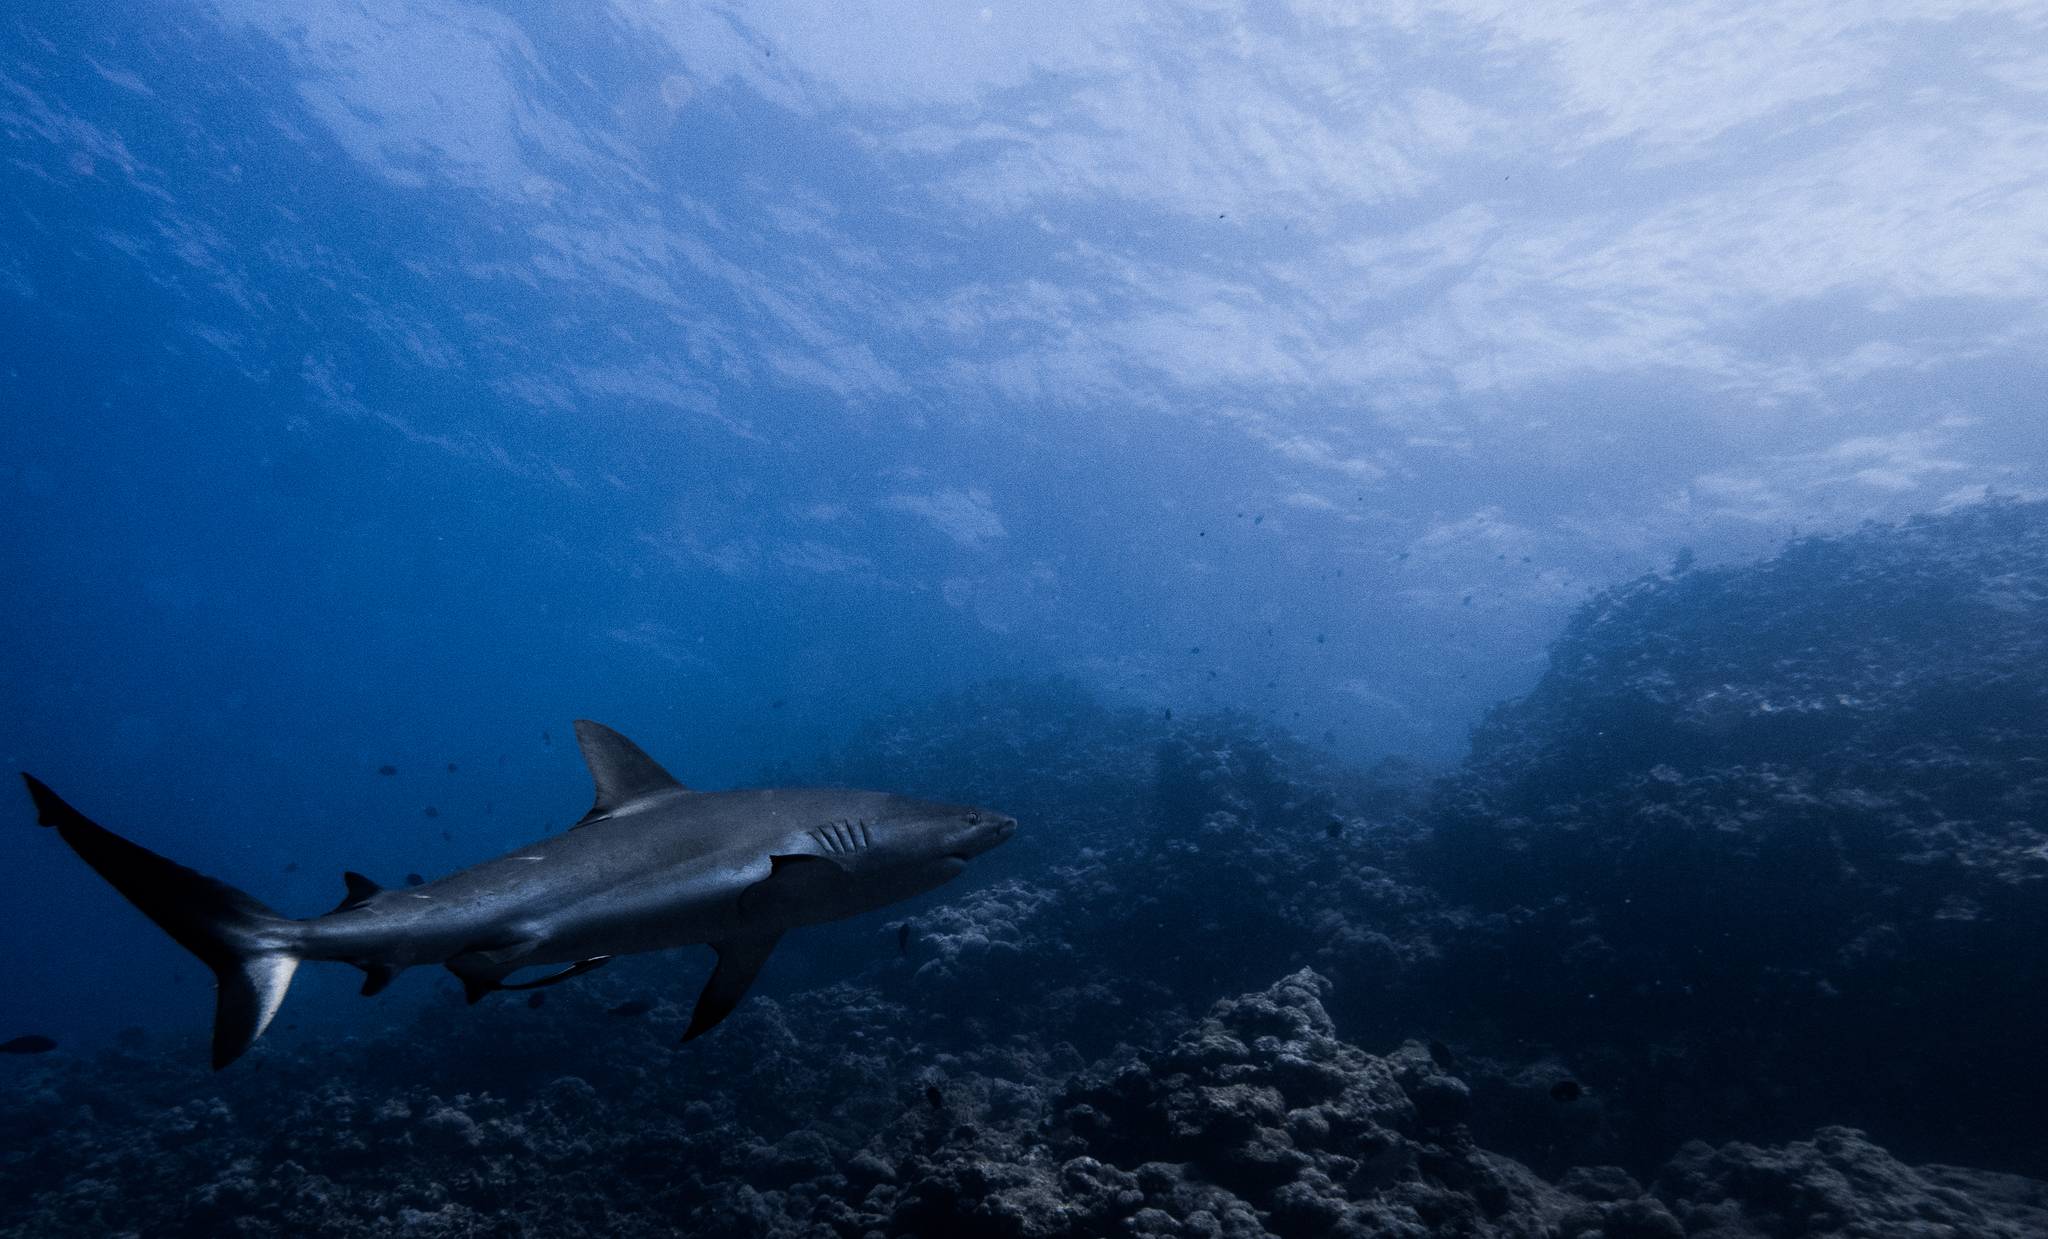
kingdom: Animalia
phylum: Chordata
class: Elasmobranchii
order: Carcharhiniformes
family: Carcharhinidae
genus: Carcharhinus
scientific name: Carcharhinus amblyrhynchos
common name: Grey reef shark
